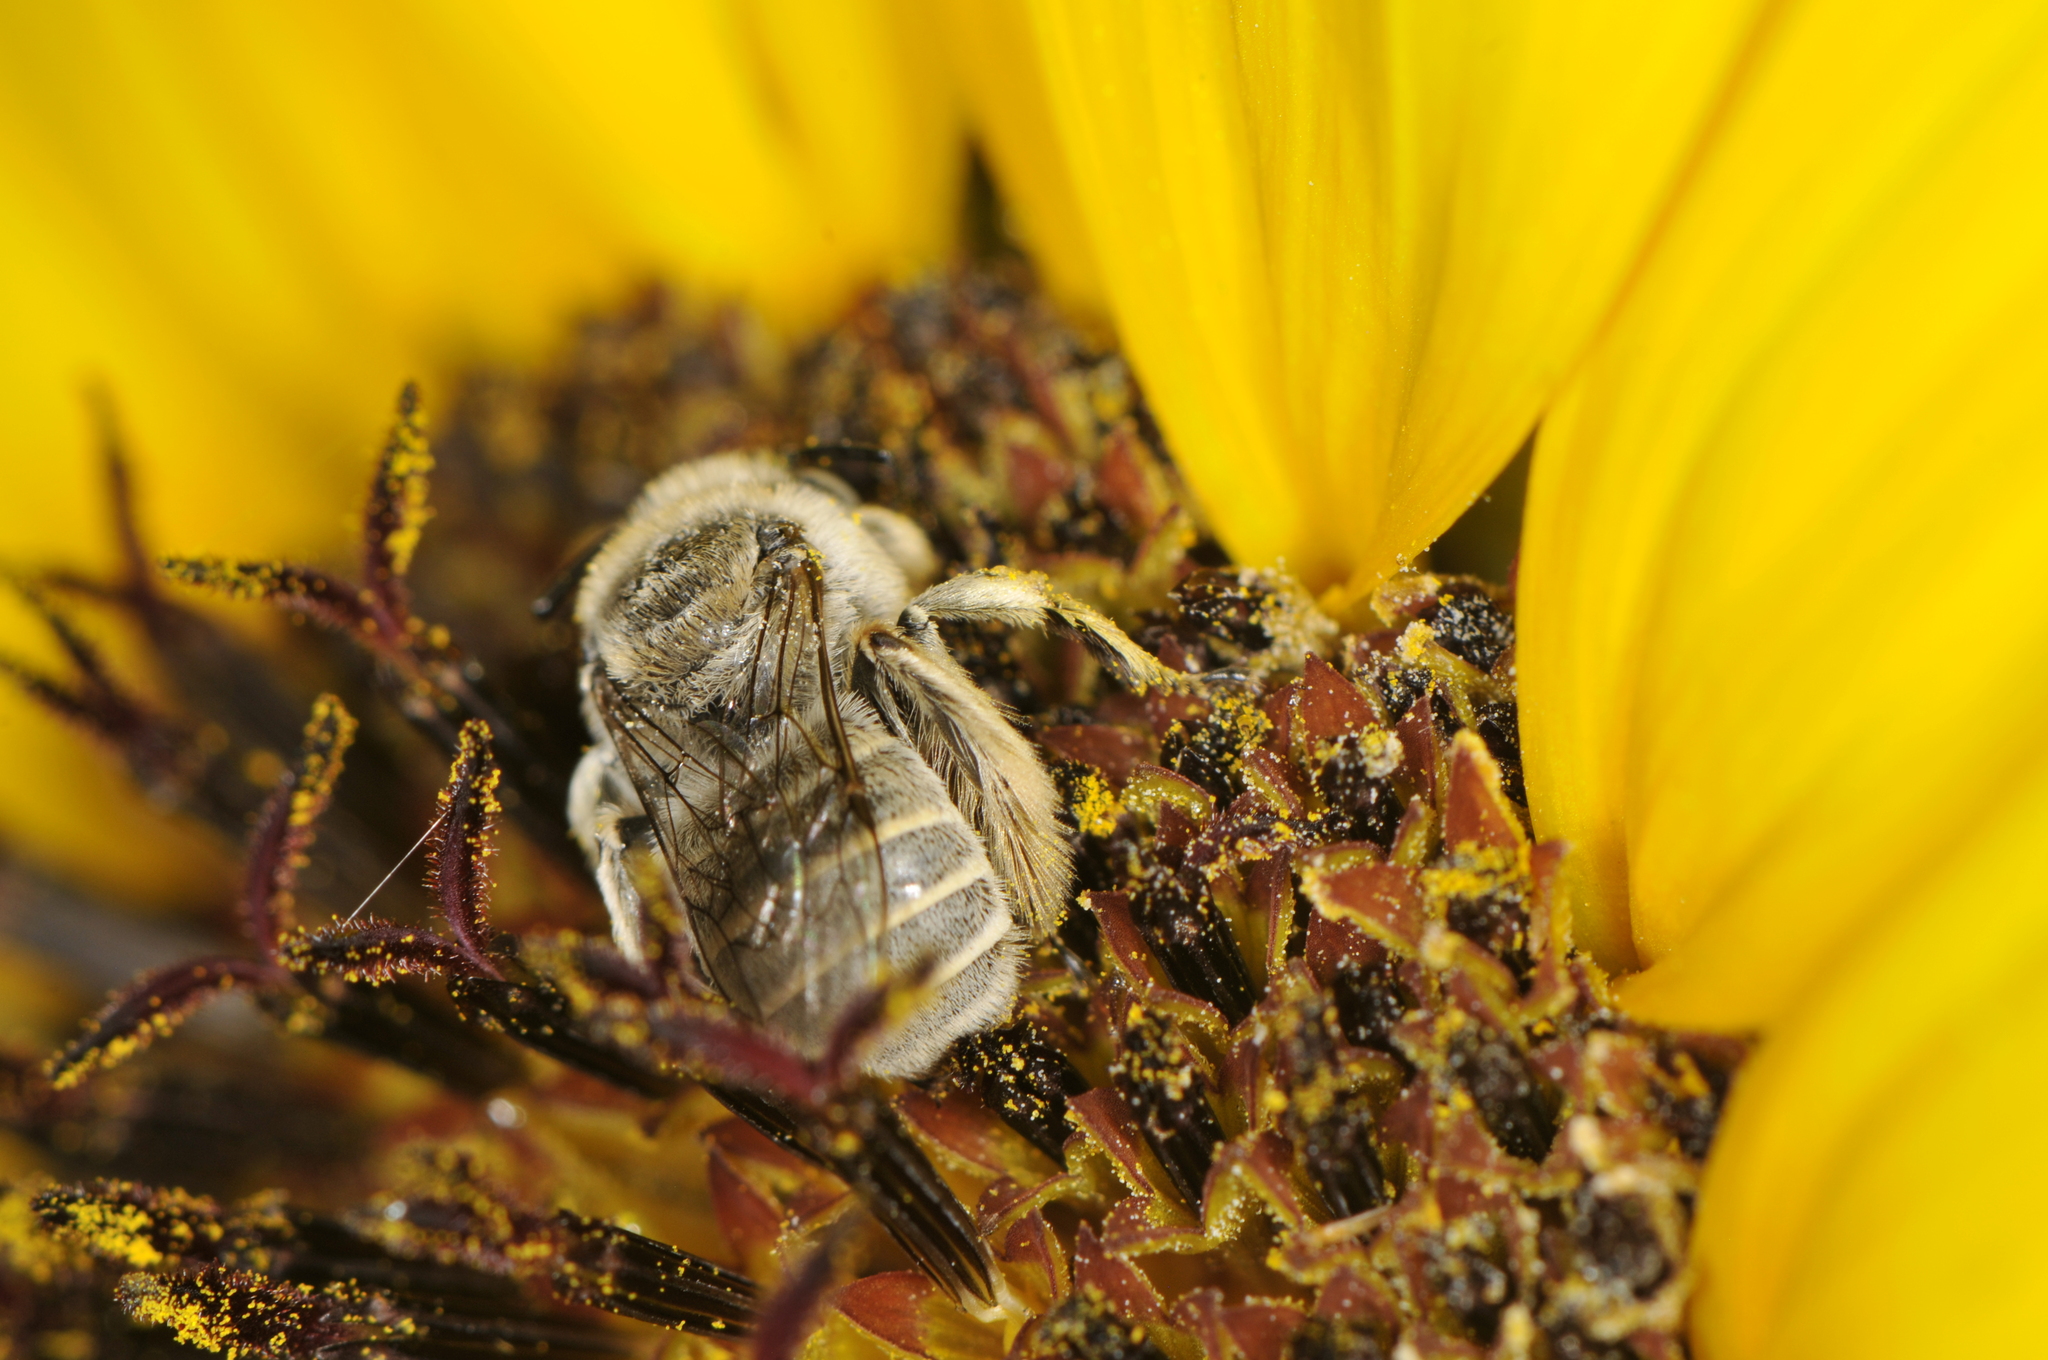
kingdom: Animalia
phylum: Arthropoda
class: Insecta
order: Hymenoptera
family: Apidae
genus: Diadasia
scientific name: Diadasia diminuta
